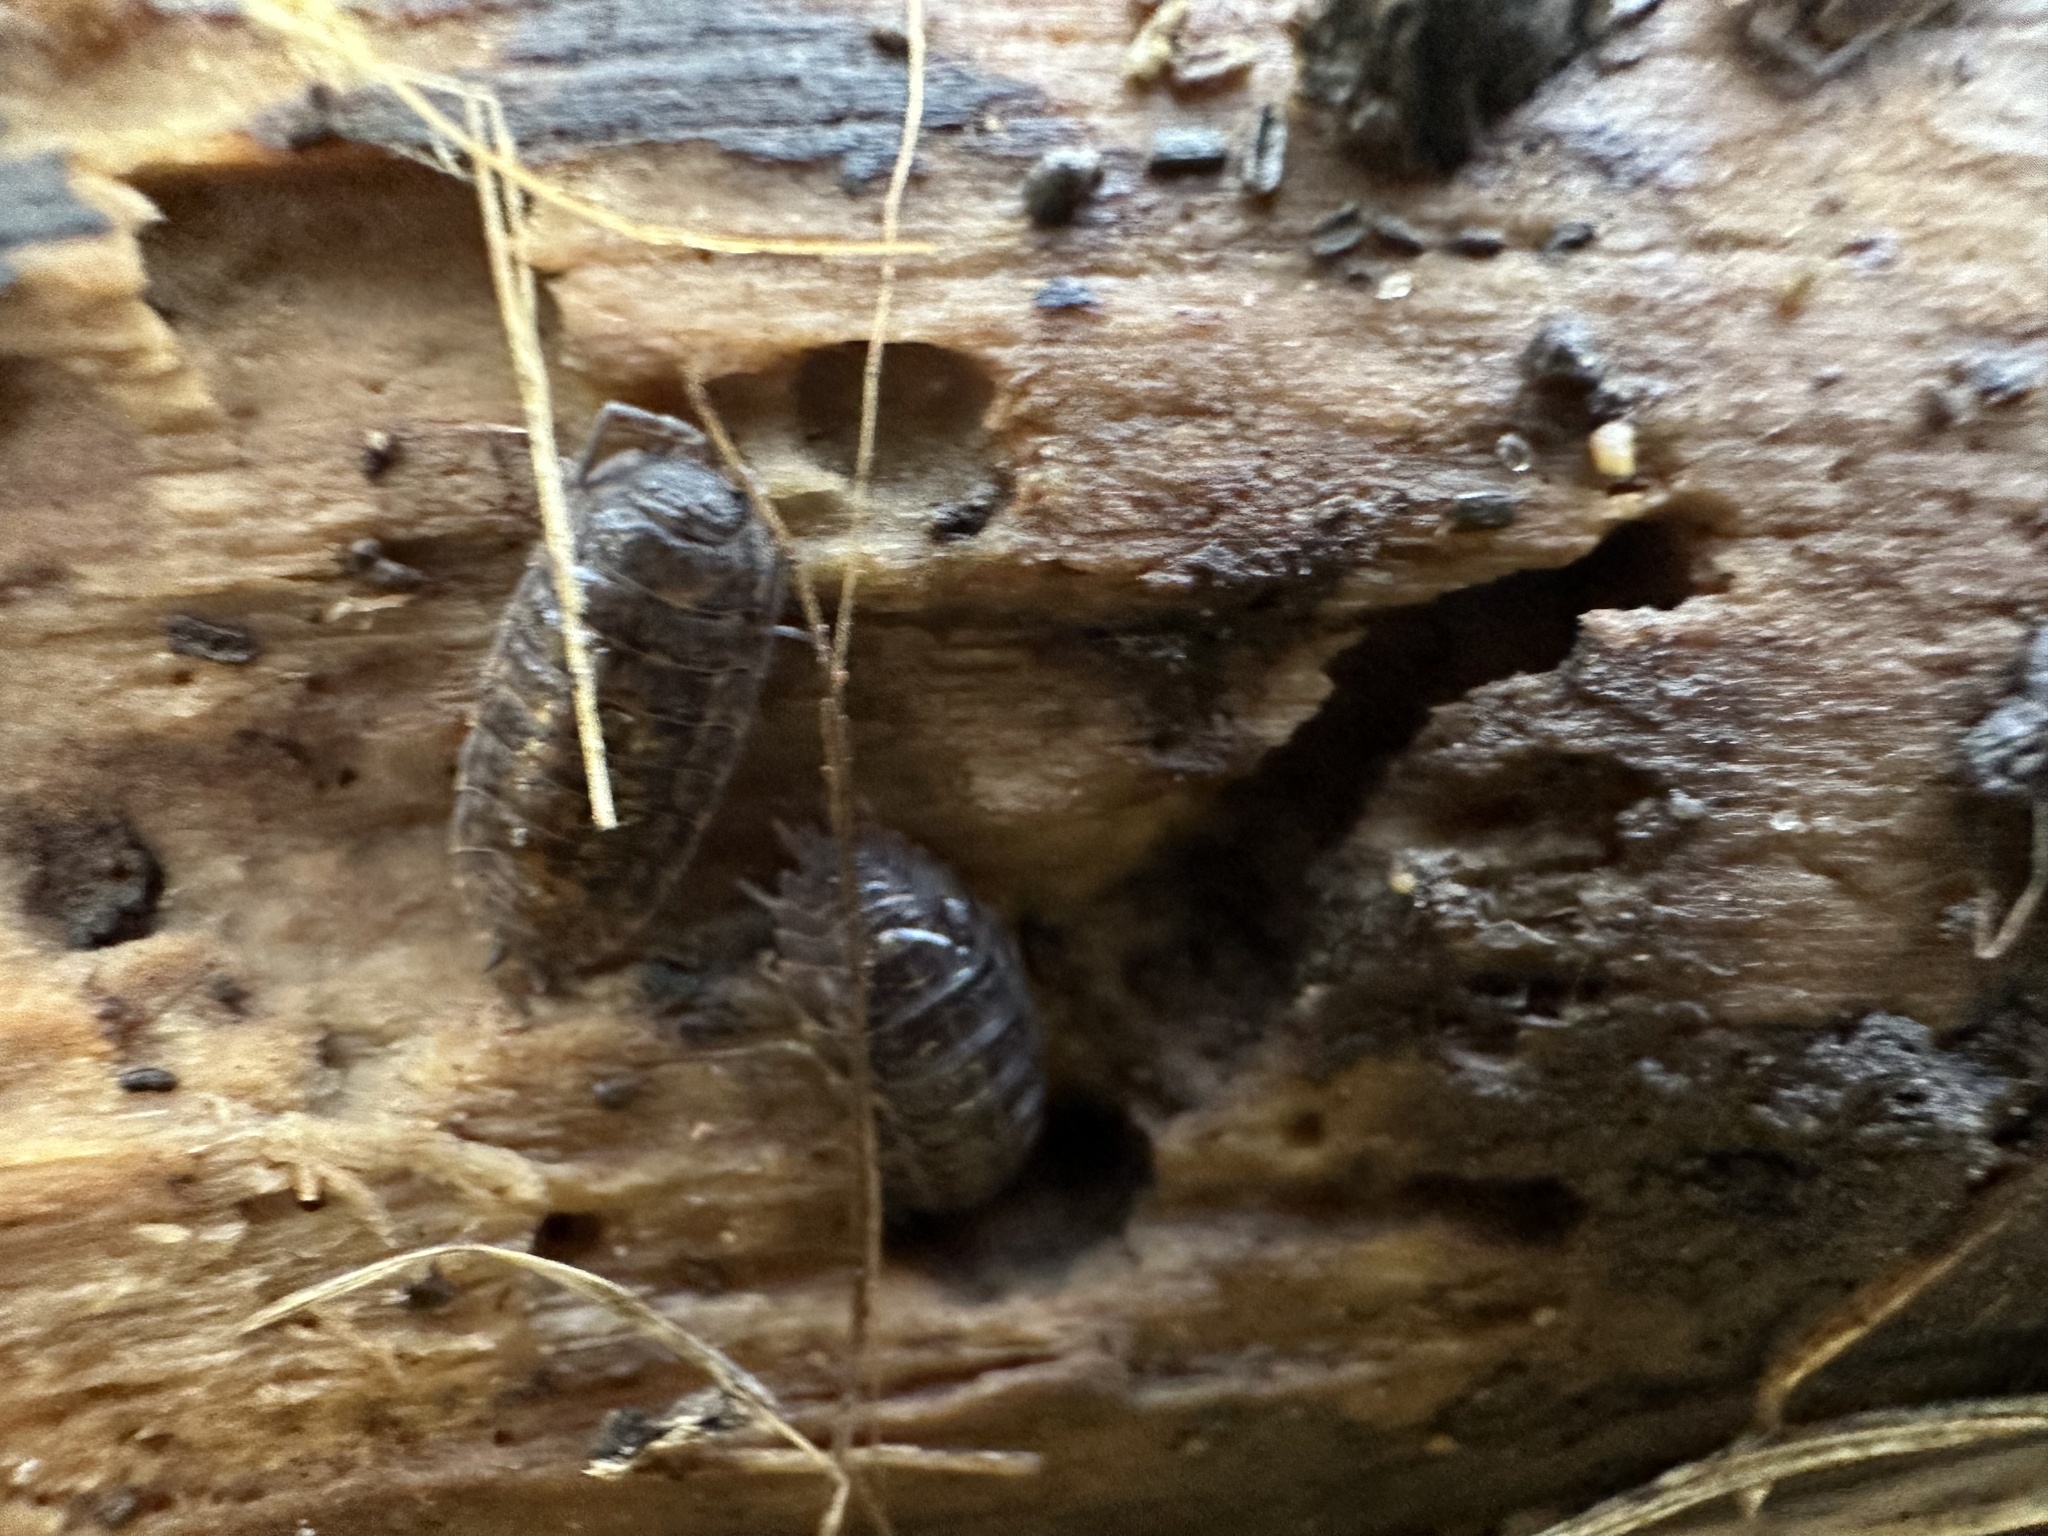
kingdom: Animalia
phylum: Arthropoda
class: Malacostraca
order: Isopoda
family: Trachelipodidae
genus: Trachelipus
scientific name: Trachelipus rathkii
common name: Isopod
